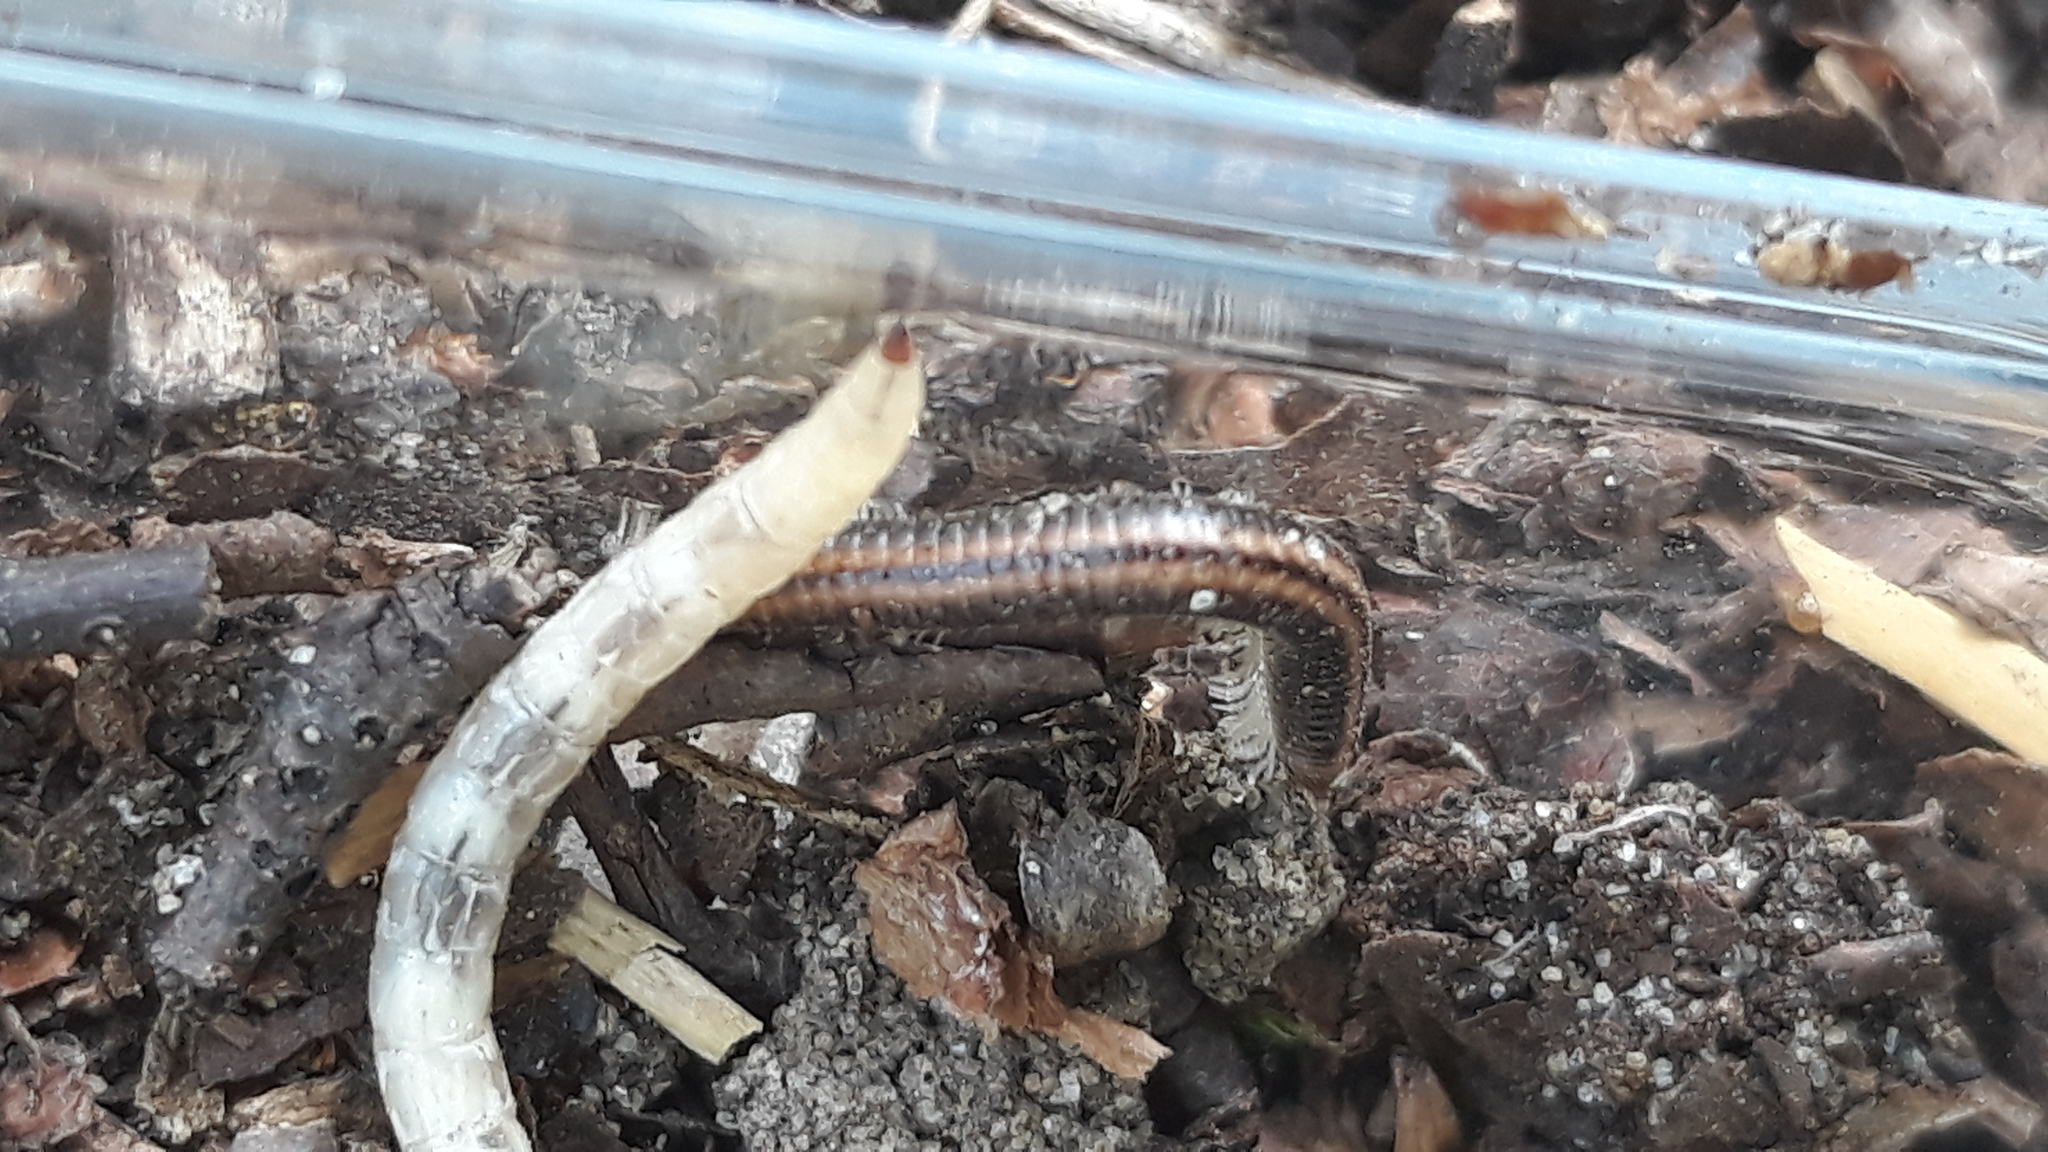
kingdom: Animalia
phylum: Arthropoda
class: Diplopoda
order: Julida
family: Julidae
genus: Ommatoiulus
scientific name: Ommatoiulus sabulosus
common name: Striped millipede
